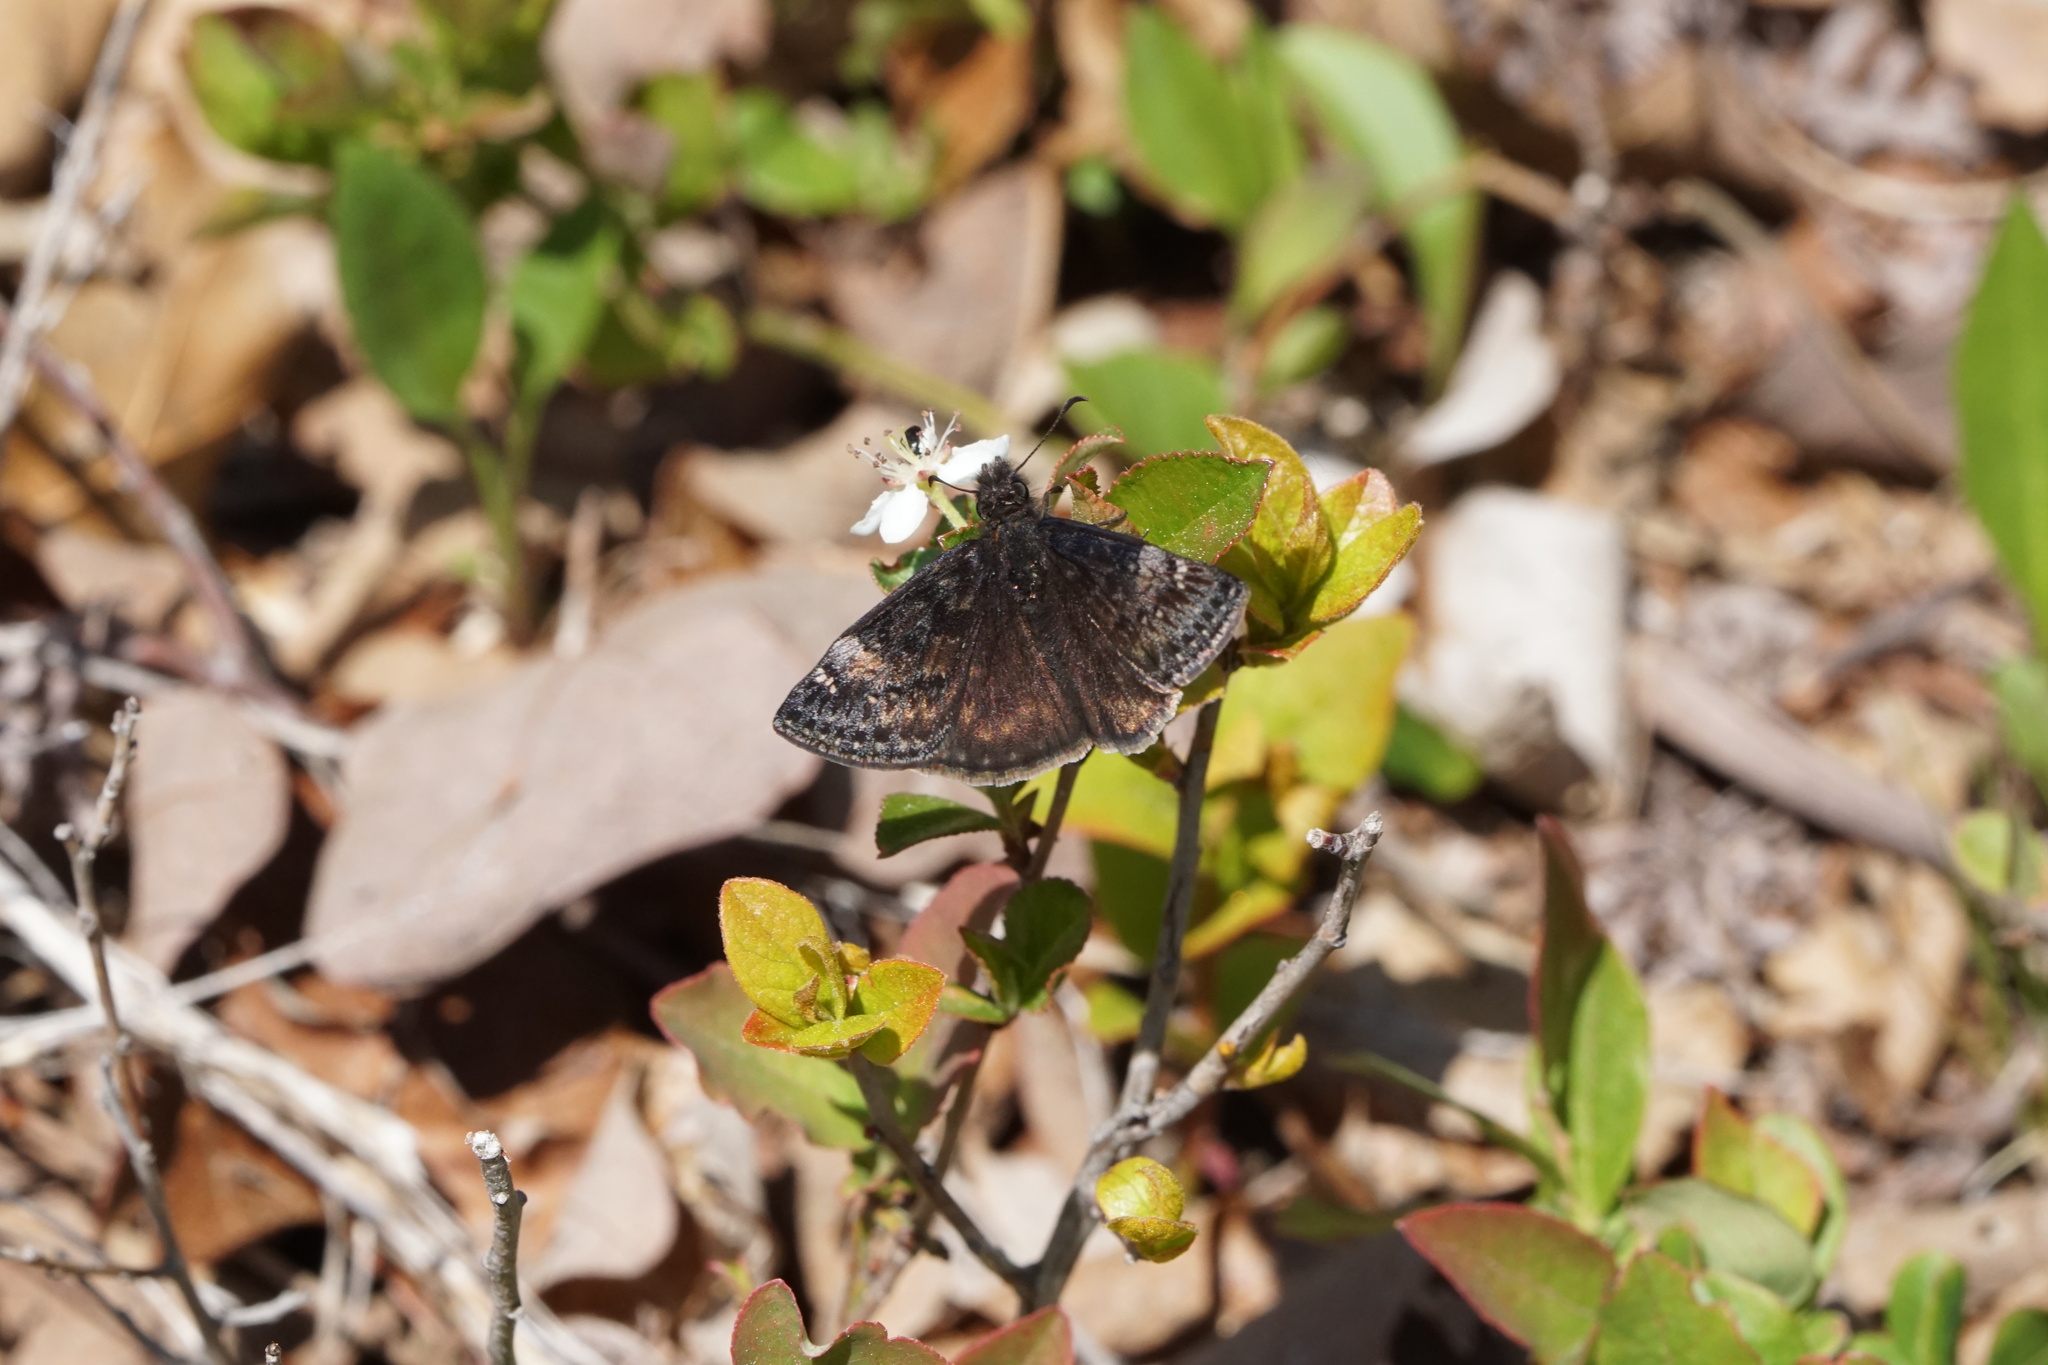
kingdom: Animalia
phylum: Arthropoda
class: Insecta
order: Lepidoptera
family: Hesperiidae
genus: Erynnis
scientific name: Erynnis baptisiae
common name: Wild indigo duskywing
